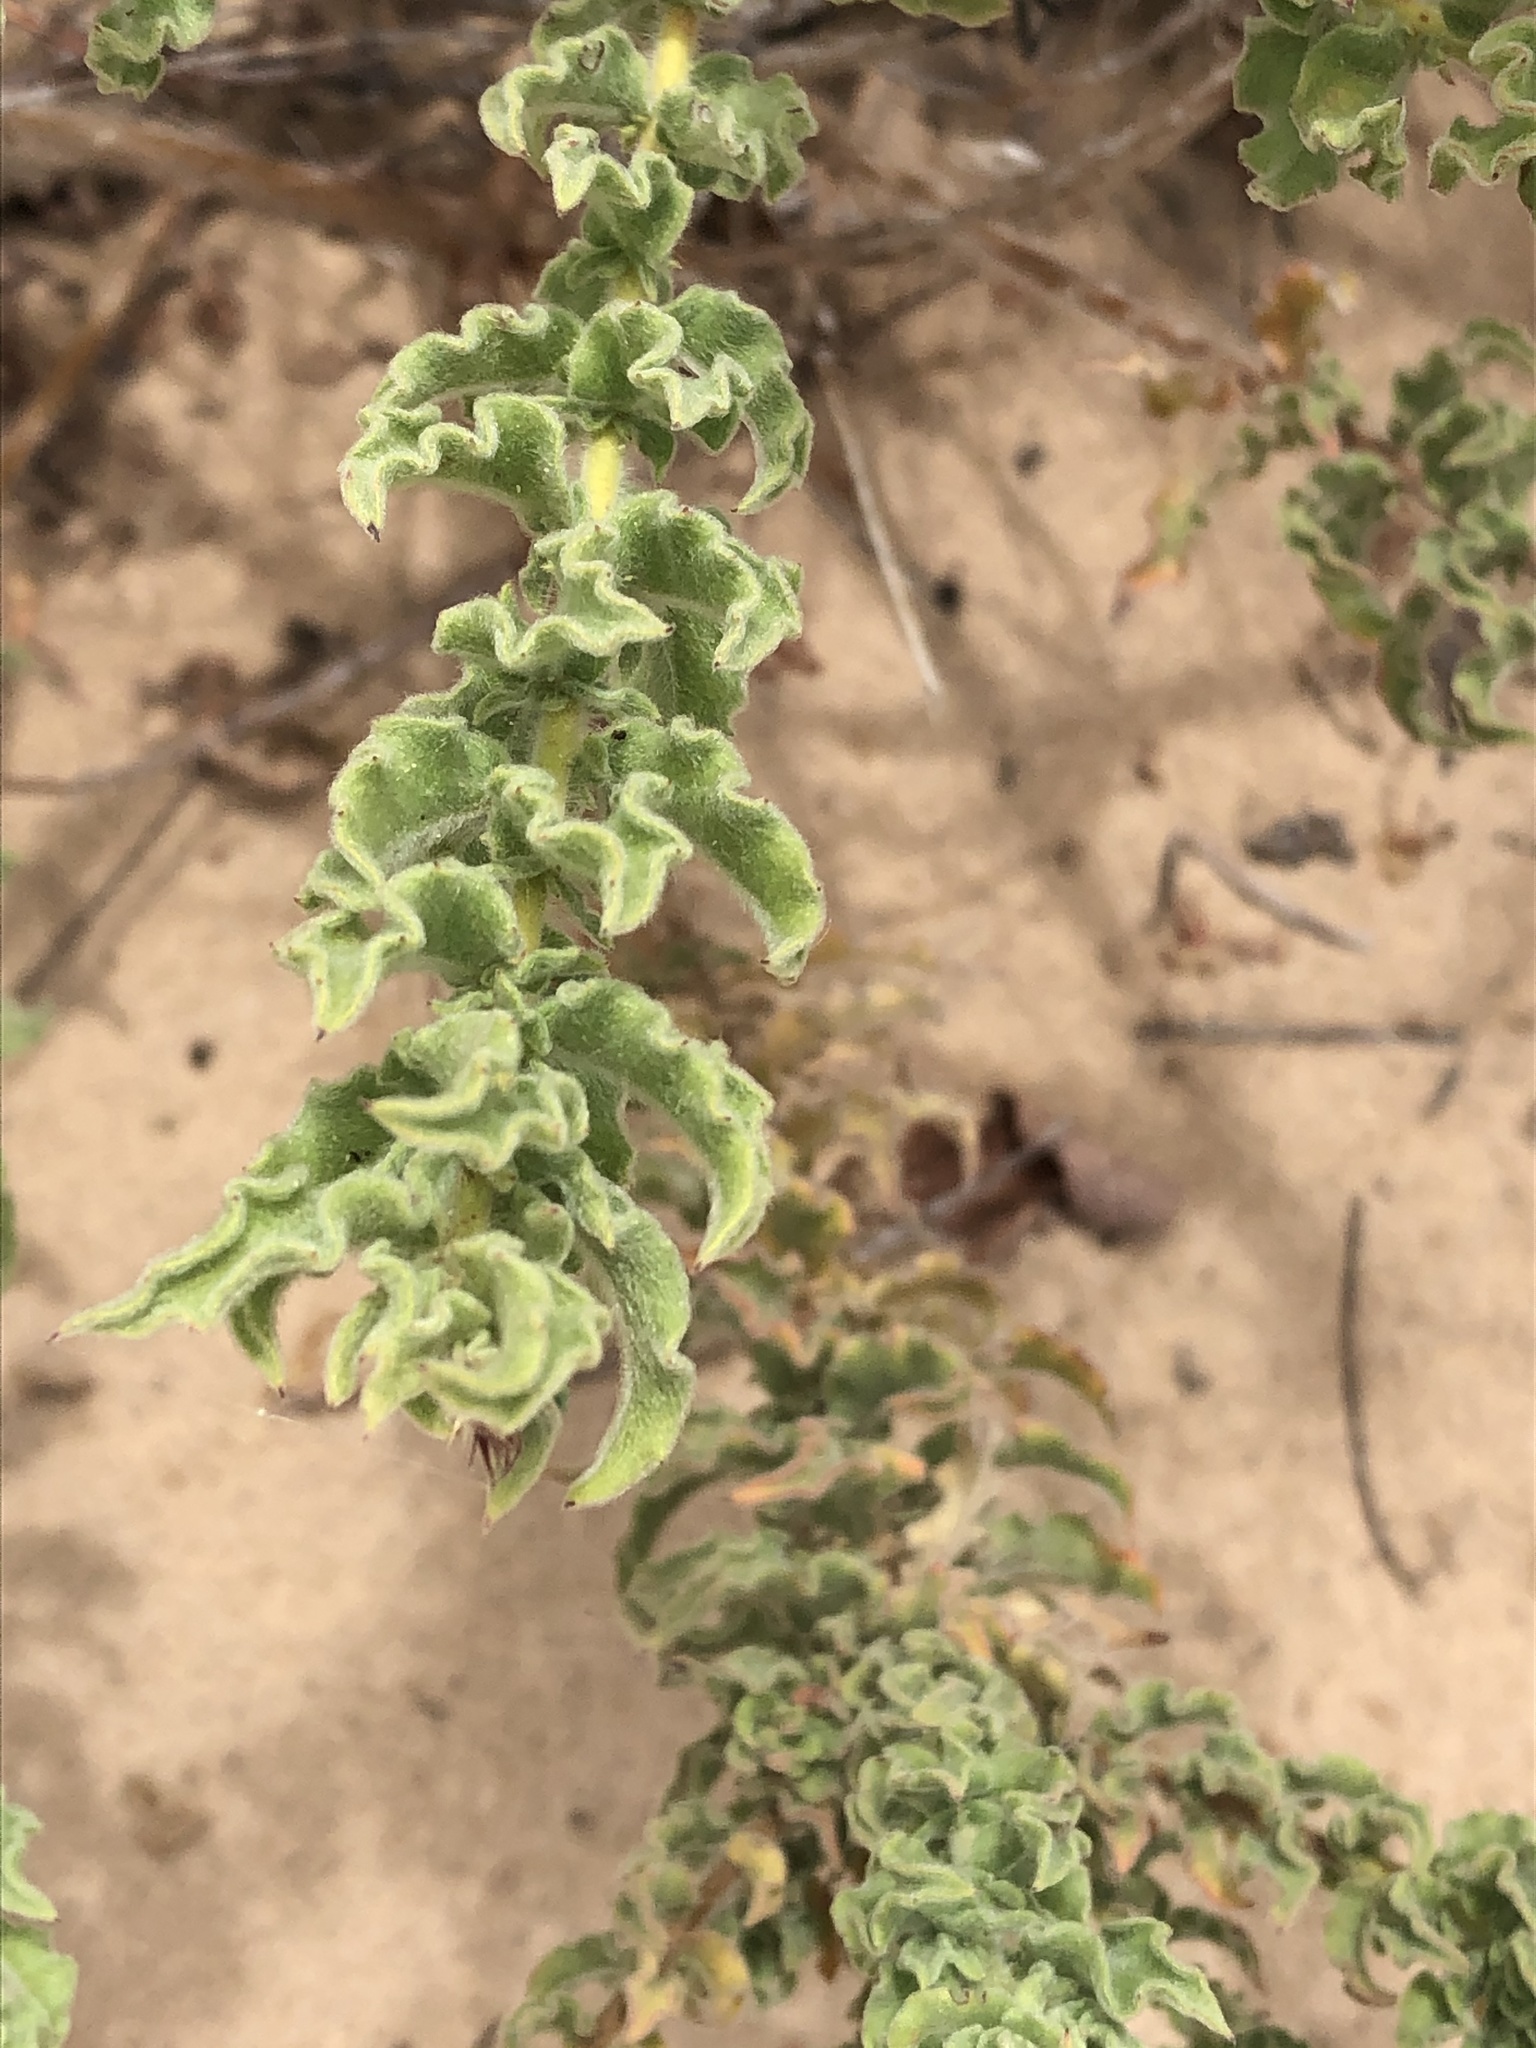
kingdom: Plantae
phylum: Tracheophyta
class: Magnoliopsida
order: Myrtales
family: Onagraceae
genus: Oenothera
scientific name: Oenothera cinerea
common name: Woolly beeblossom
